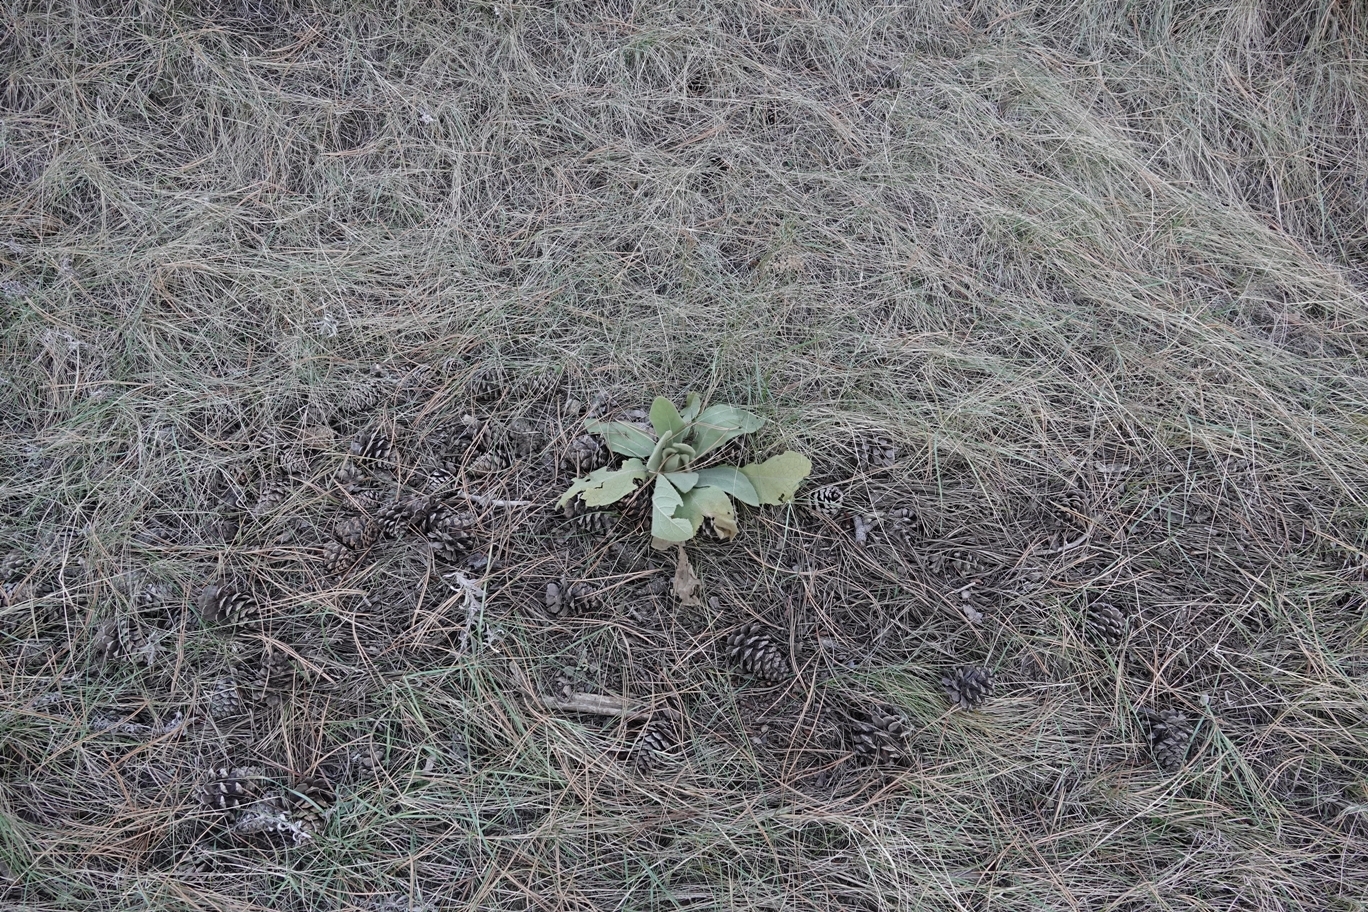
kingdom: Plantae
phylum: Tracheophyta
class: Magnoliopsida
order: Lamiales
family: Scrophulariaceae
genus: Verbascum
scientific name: Verbascum thapsus
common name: Common mullein
